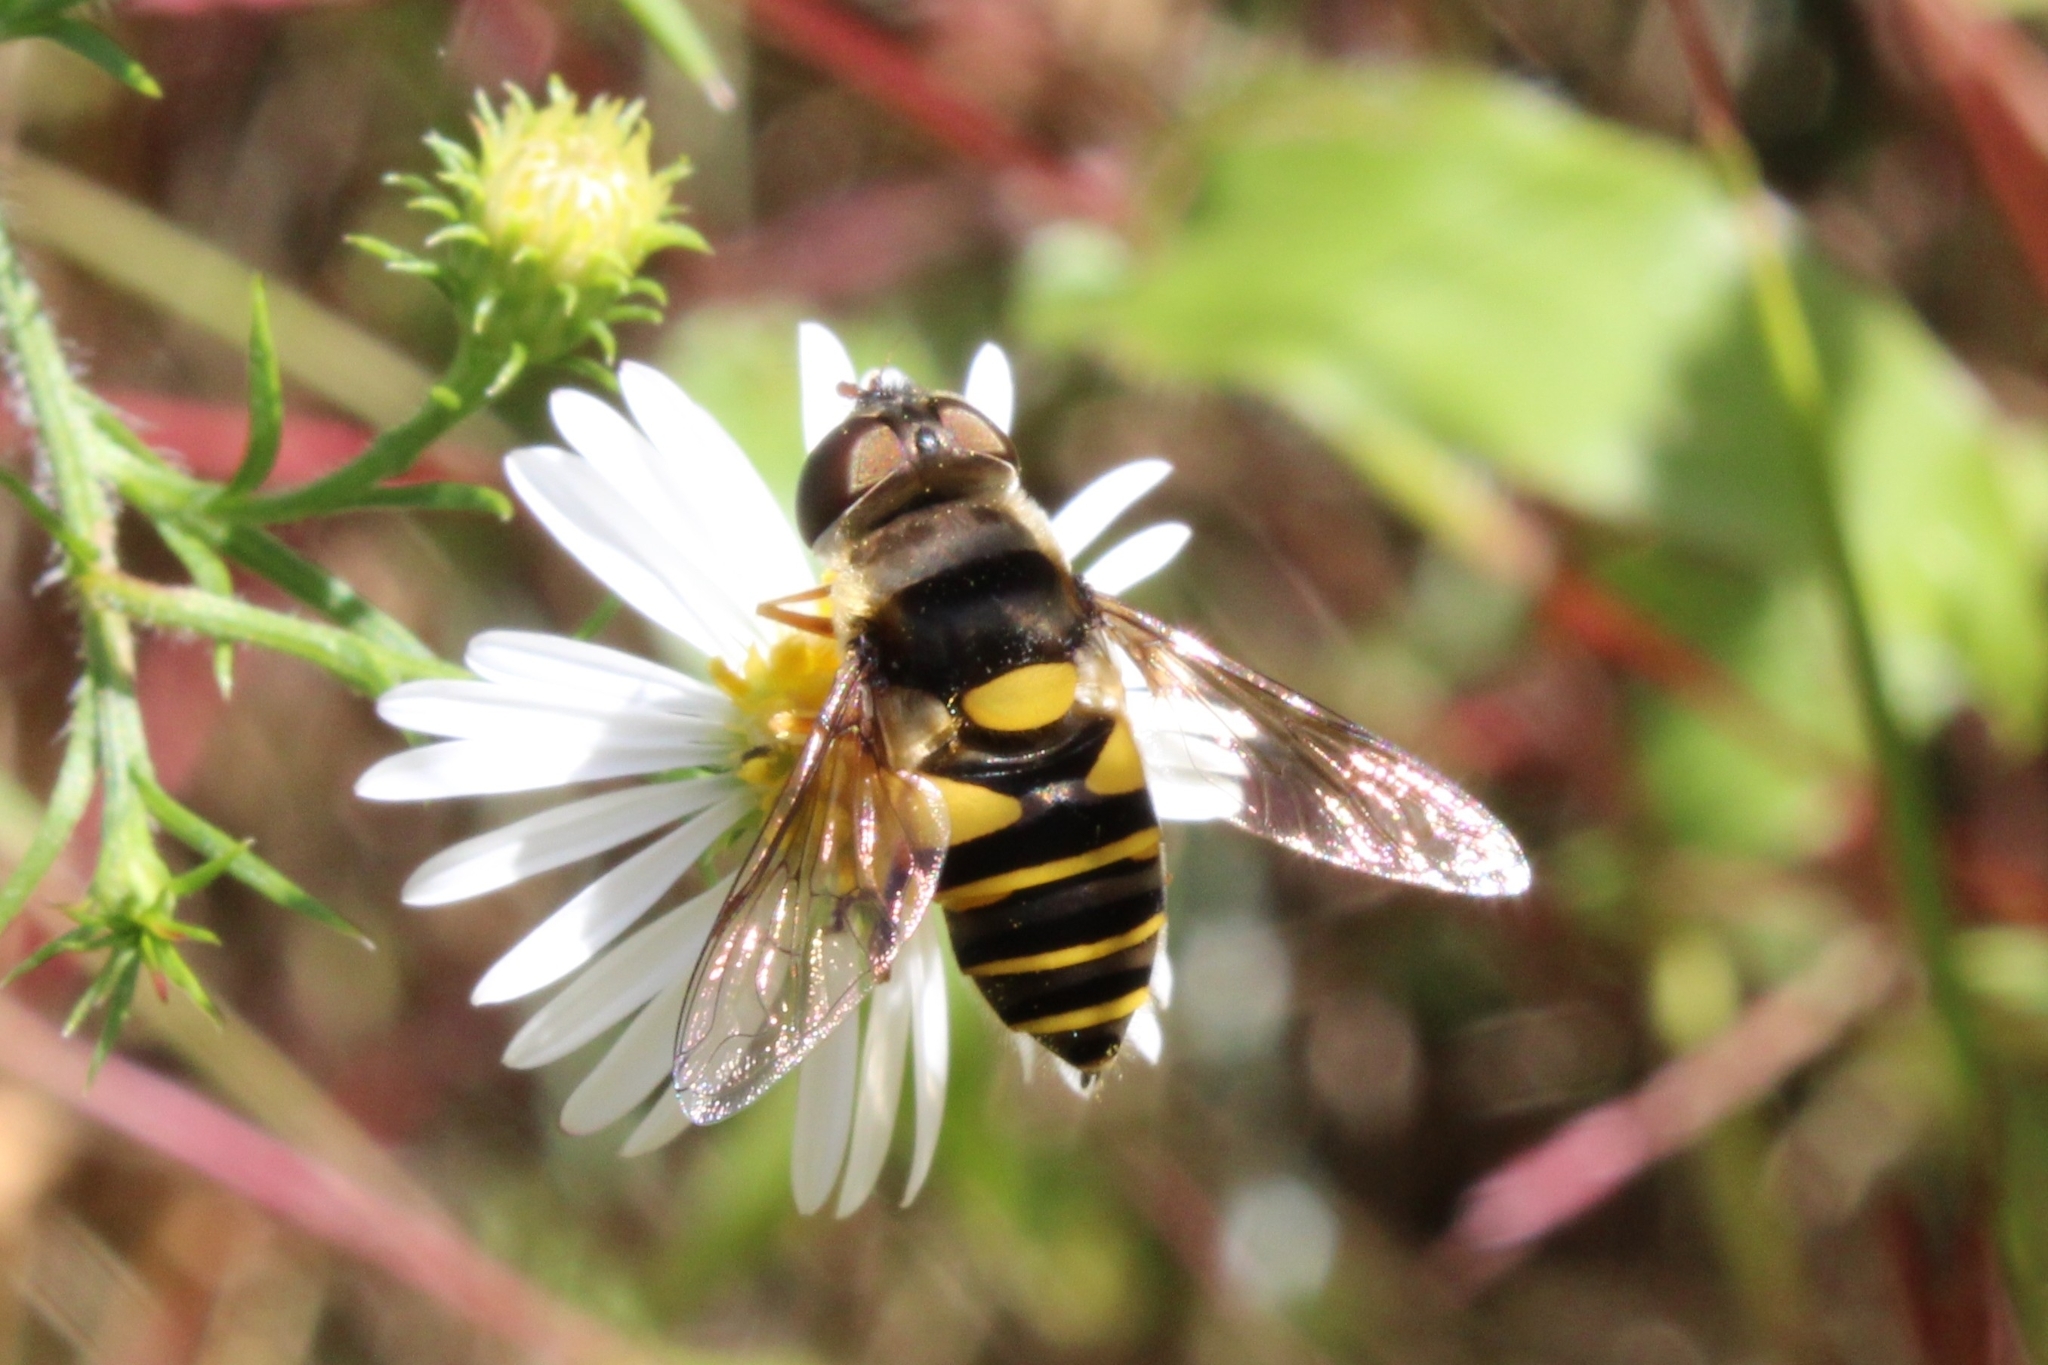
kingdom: Animalia
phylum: Arthropoda
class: Insecta
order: Diptera
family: Syrphidae
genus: Eristalis
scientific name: Eristalis transversa
